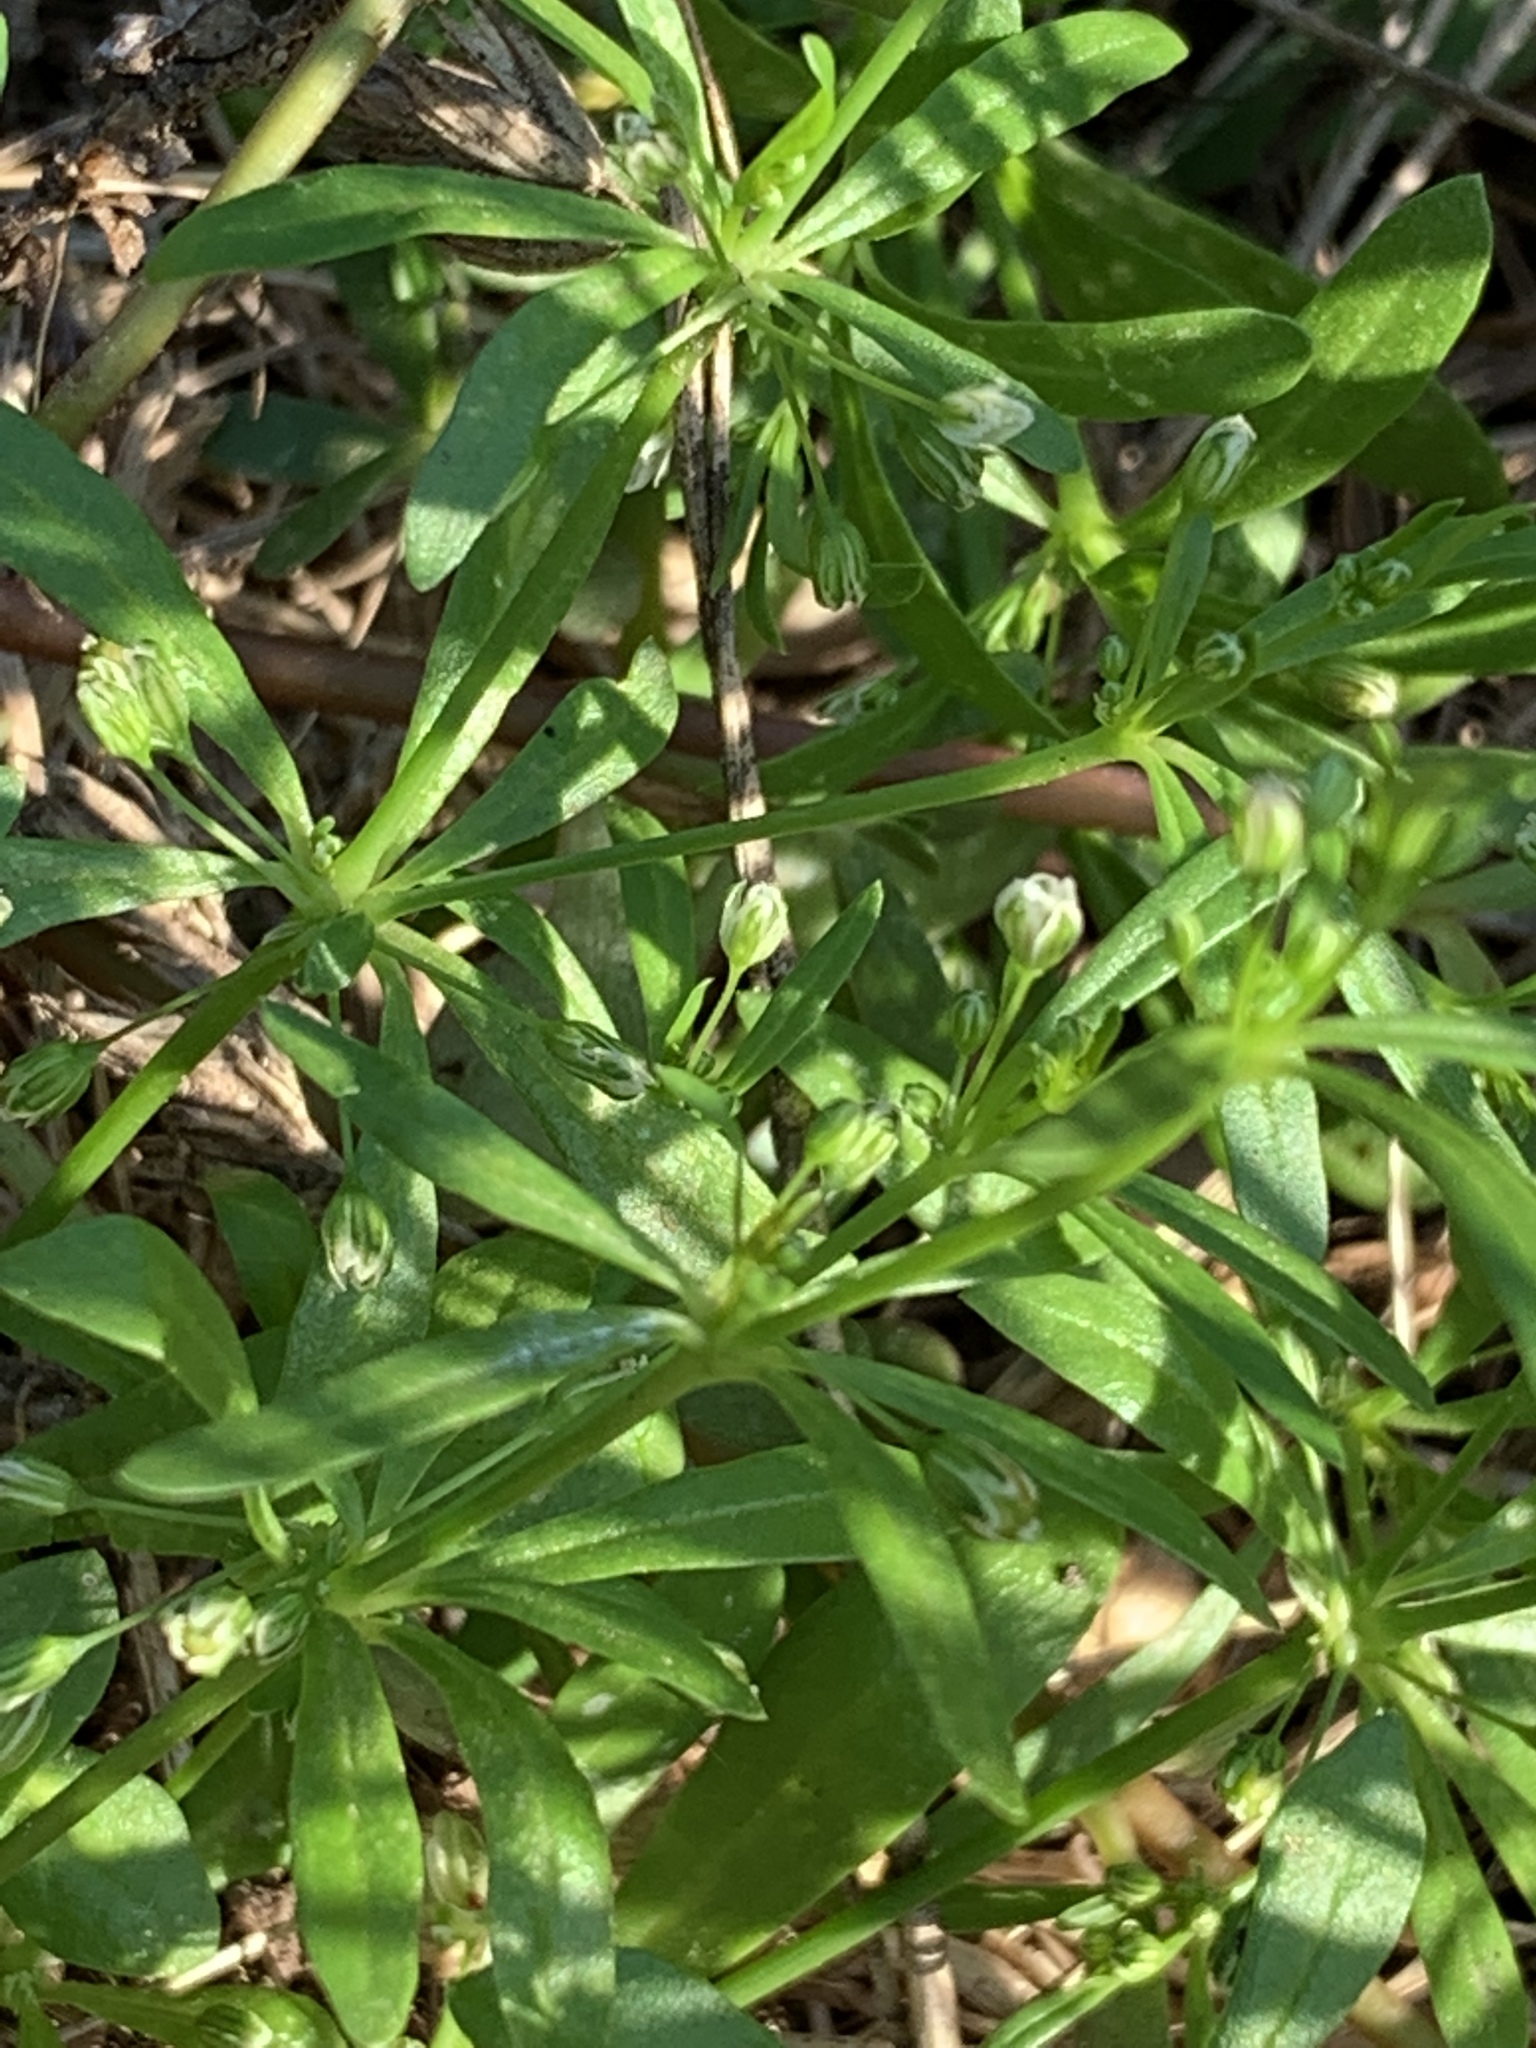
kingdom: Plantae
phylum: Tracheophyta
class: Magnoliopsida
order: Caryophyllales
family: Molluginaceae
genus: Mollugo
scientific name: Mollugo verticillata
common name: Green carpetweed
